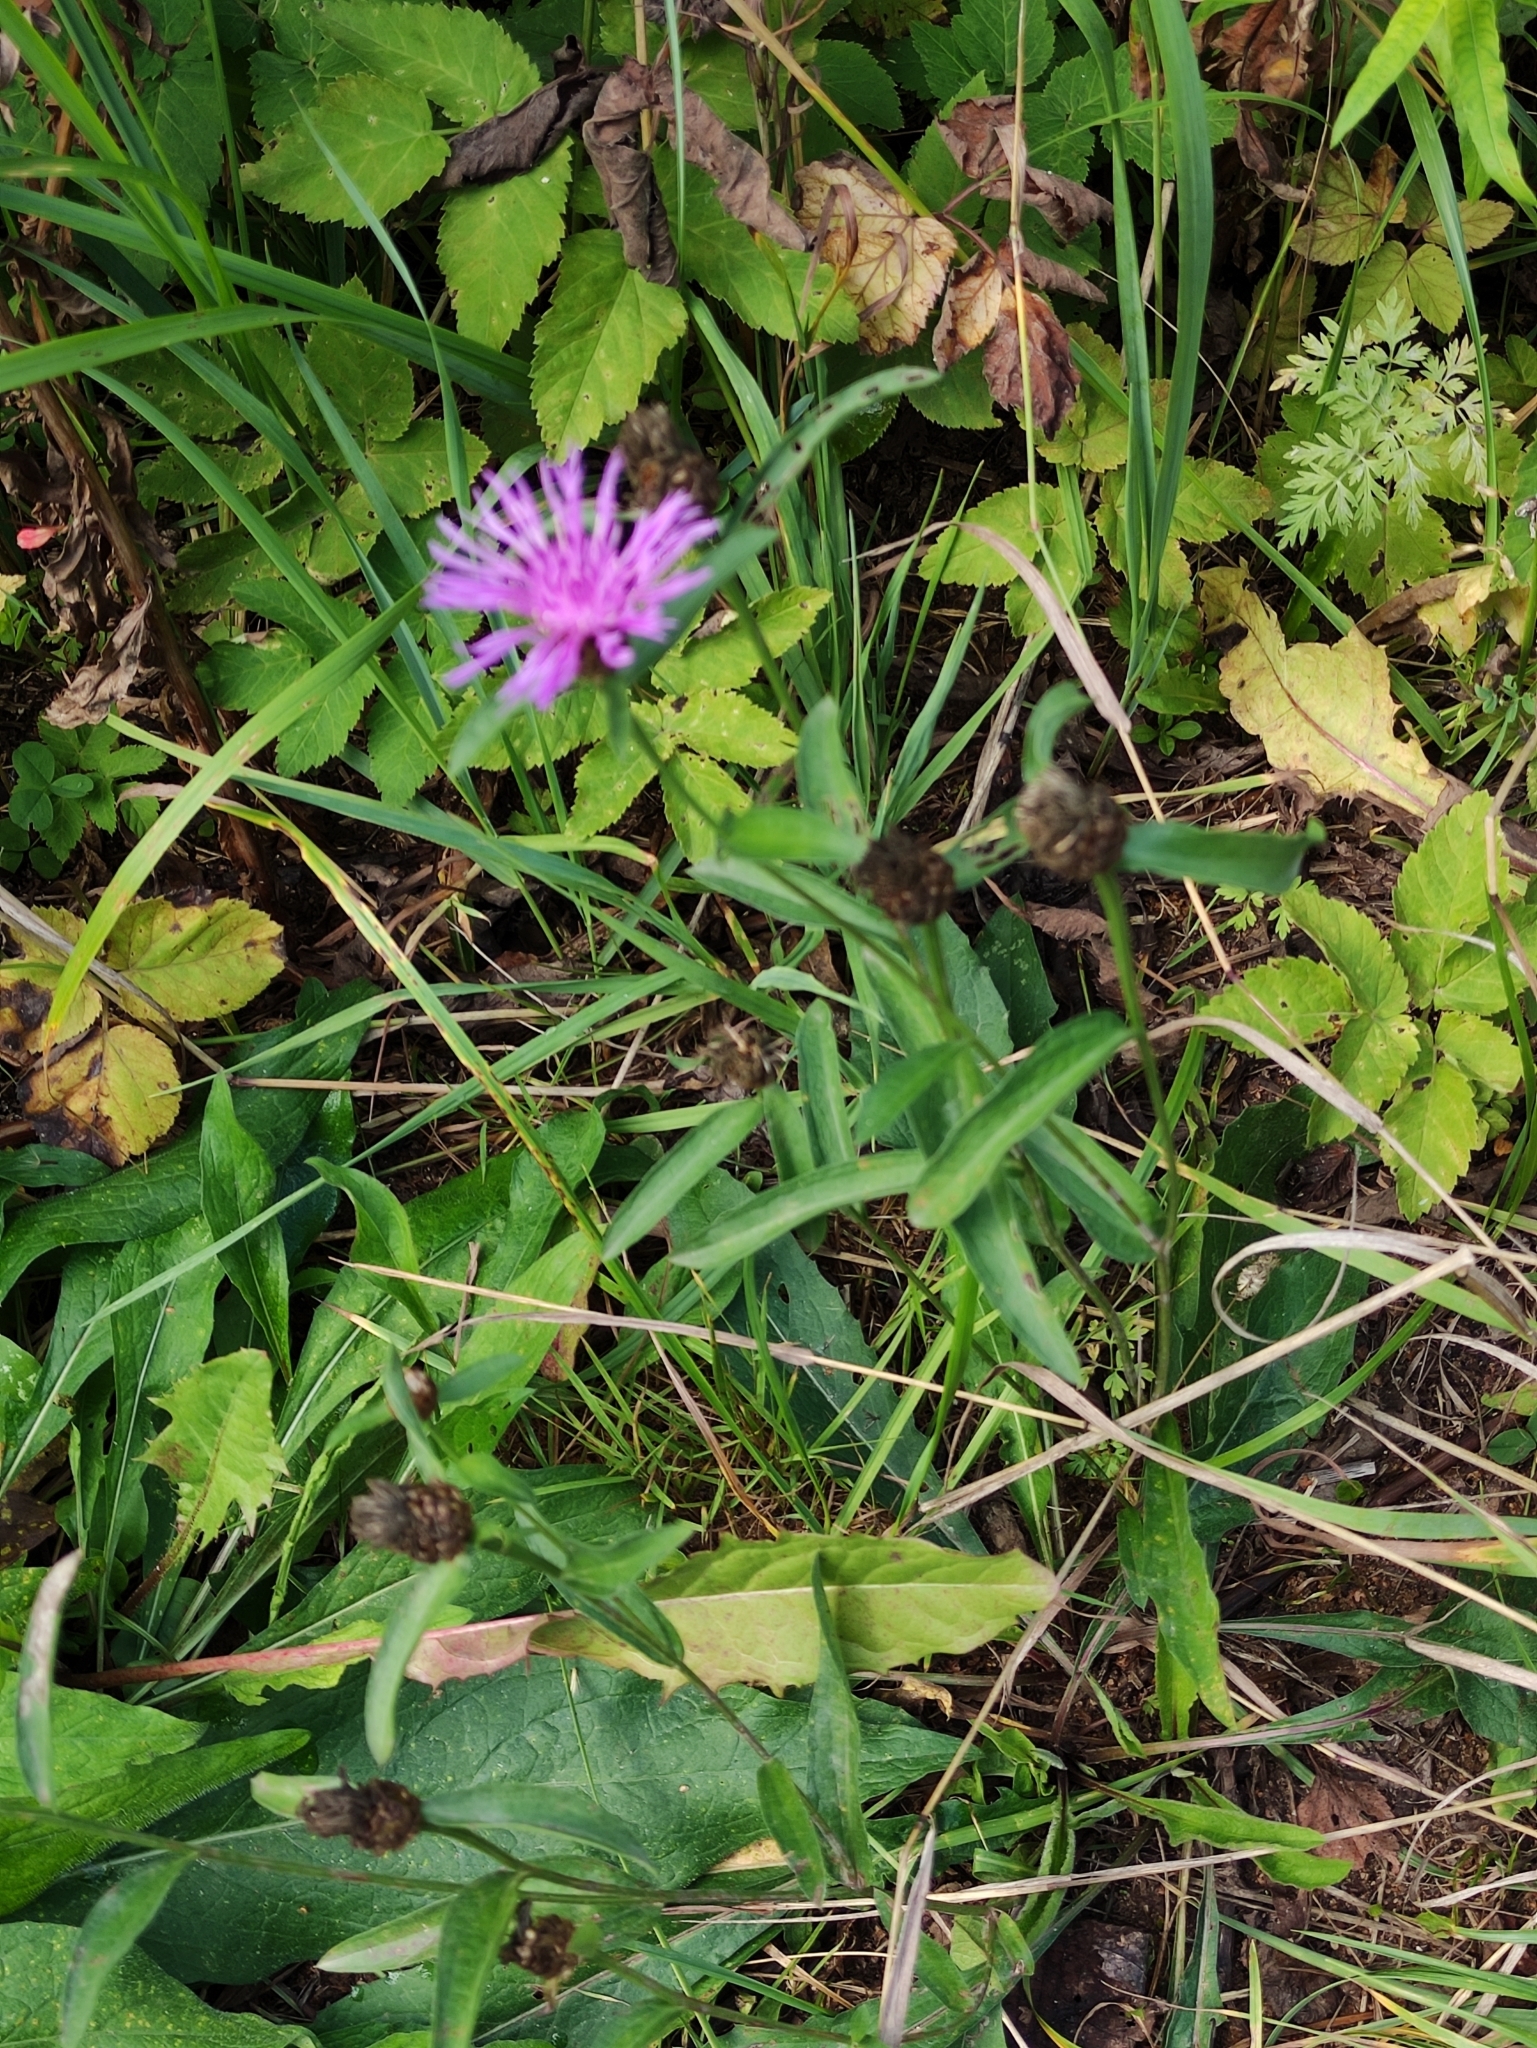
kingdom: Plantae
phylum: Tracheophyta
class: Magnoliopsida
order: Asterales
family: Asteraceae
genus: Centaurea
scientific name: Centaurea jacea
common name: Brown knapweed
